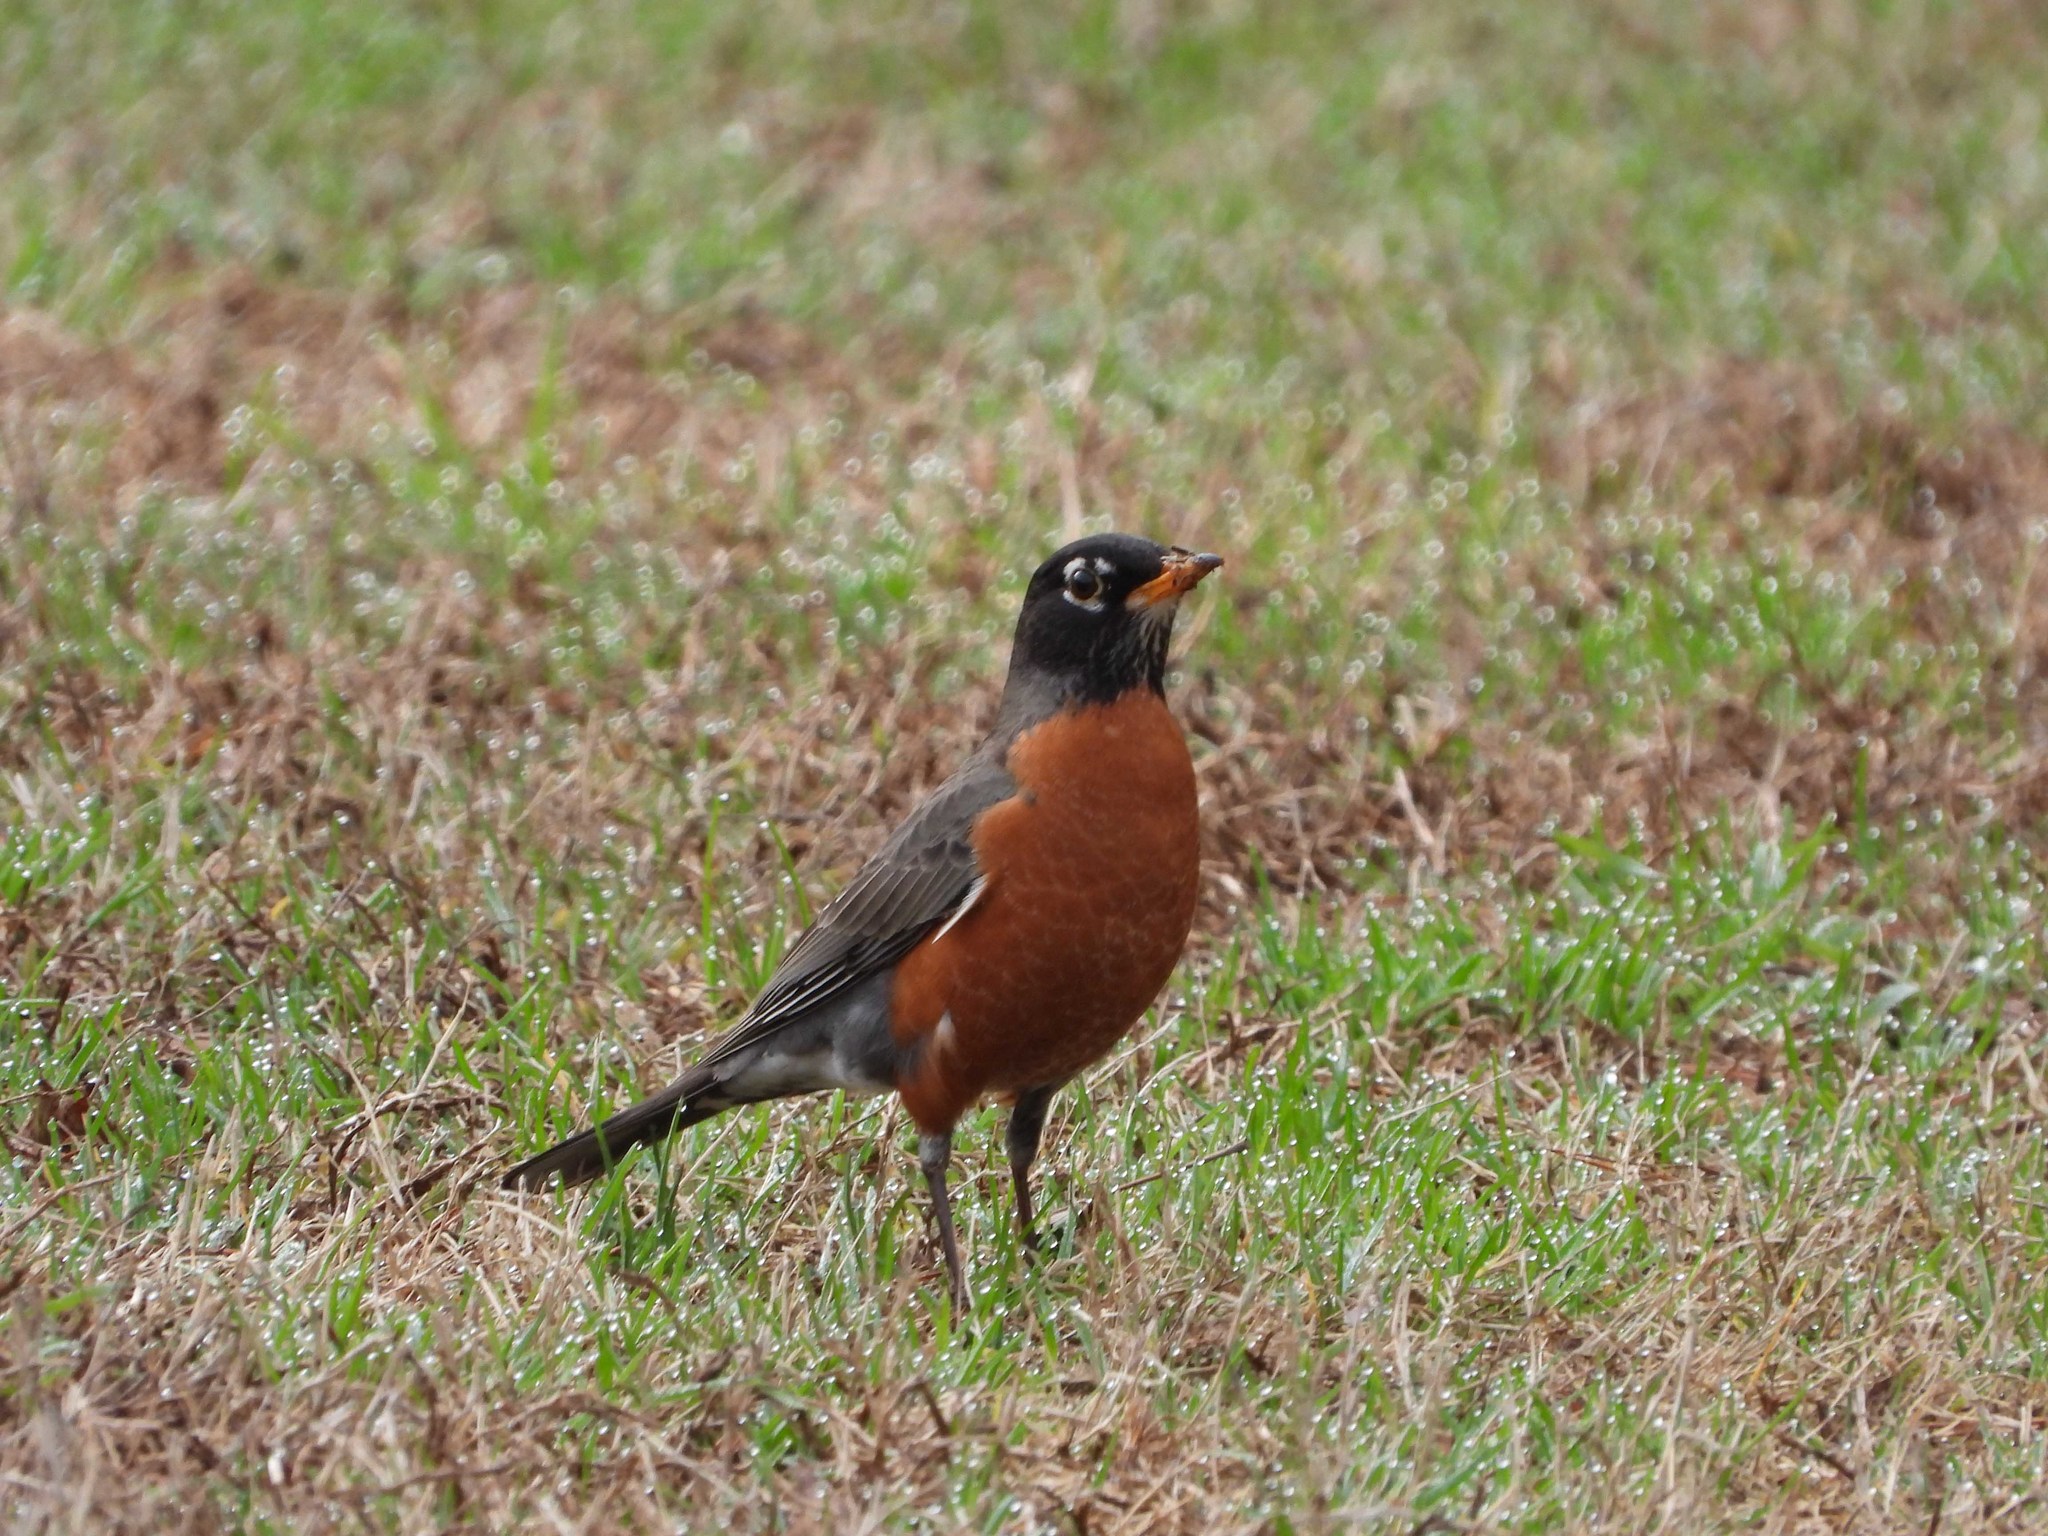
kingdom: Animalia
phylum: Chordata
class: Aves
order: Passeriformes
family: Turdidae
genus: Turdus
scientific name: Turdus migratorius
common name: American robin
